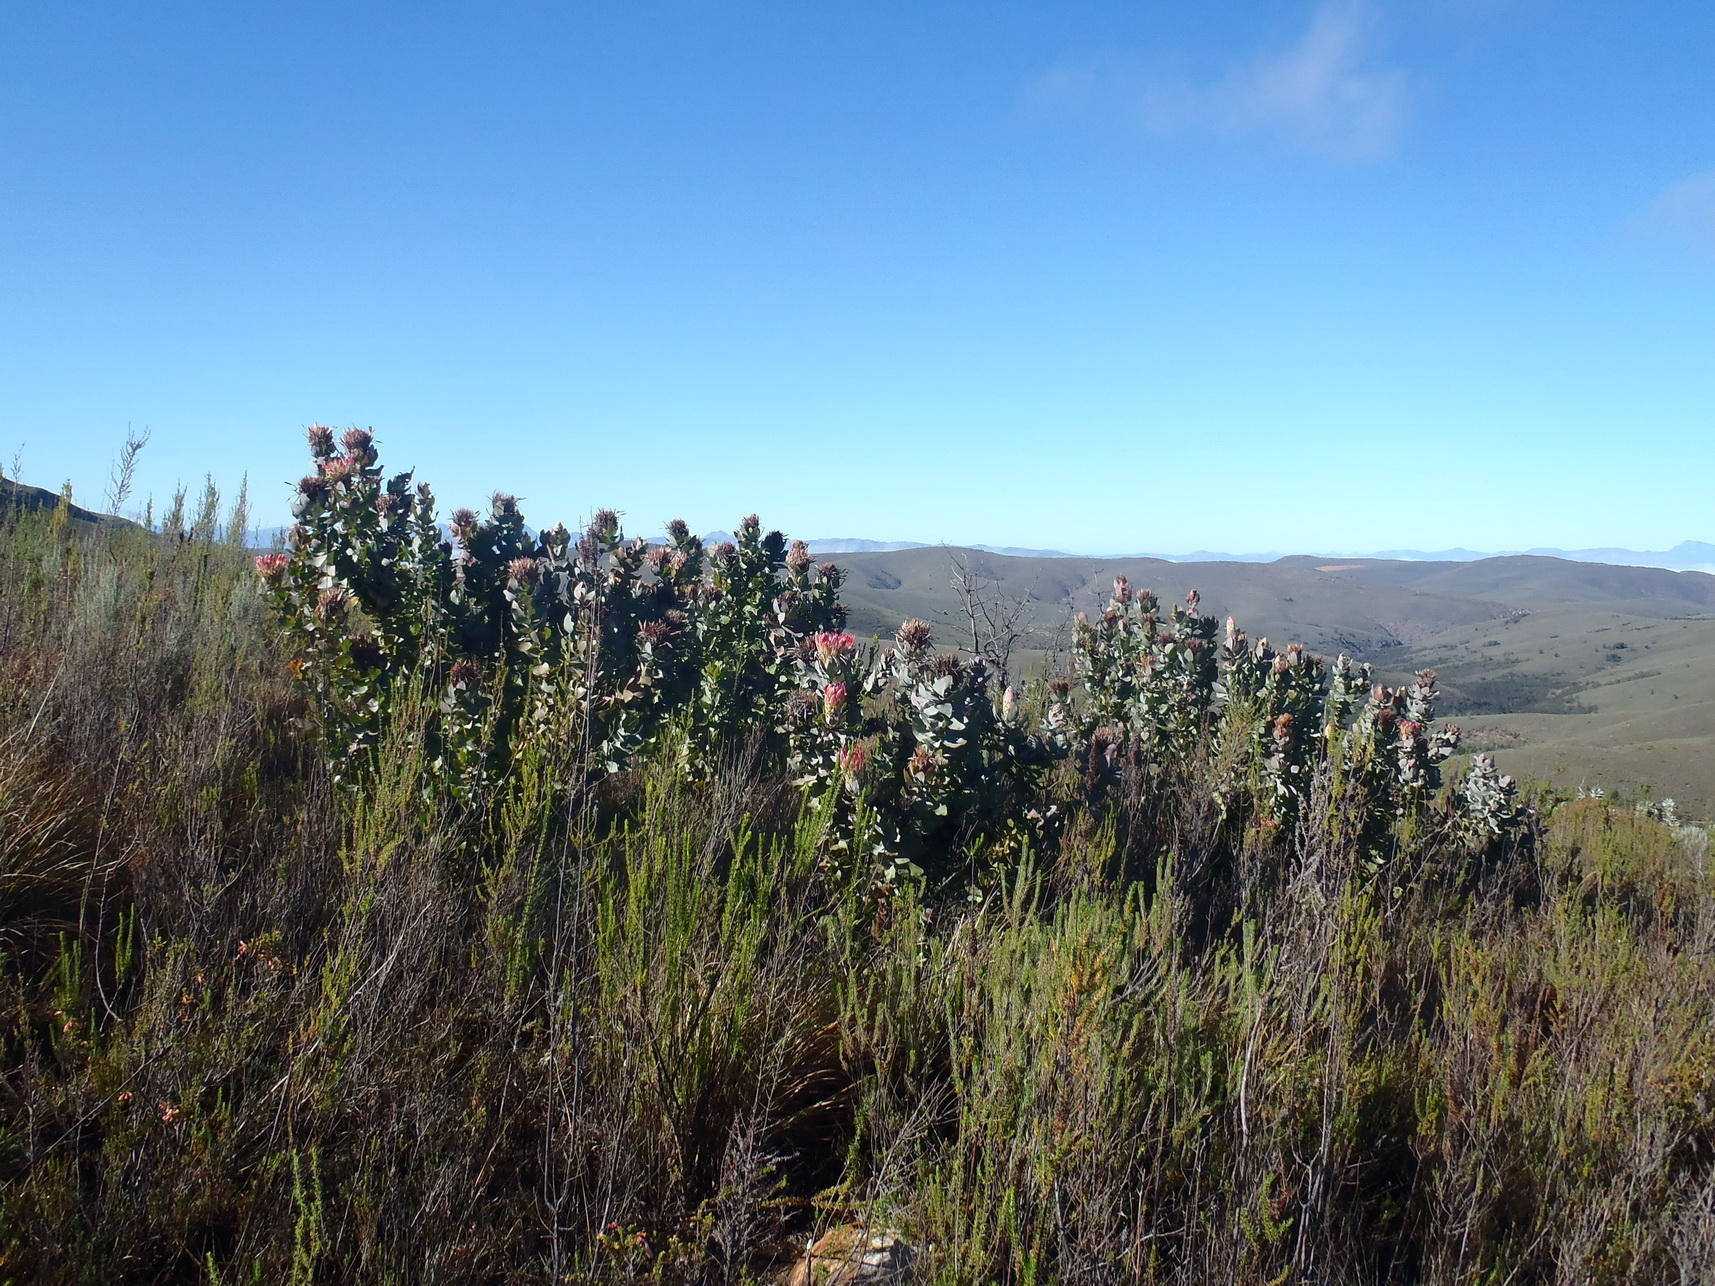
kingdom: Plantae
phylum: Tracheophyta
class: Magnoliopsida
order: Proteales
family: Proteaceae
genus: Protea
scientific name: Protea eximia
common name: Broad-leaved sugarbush
